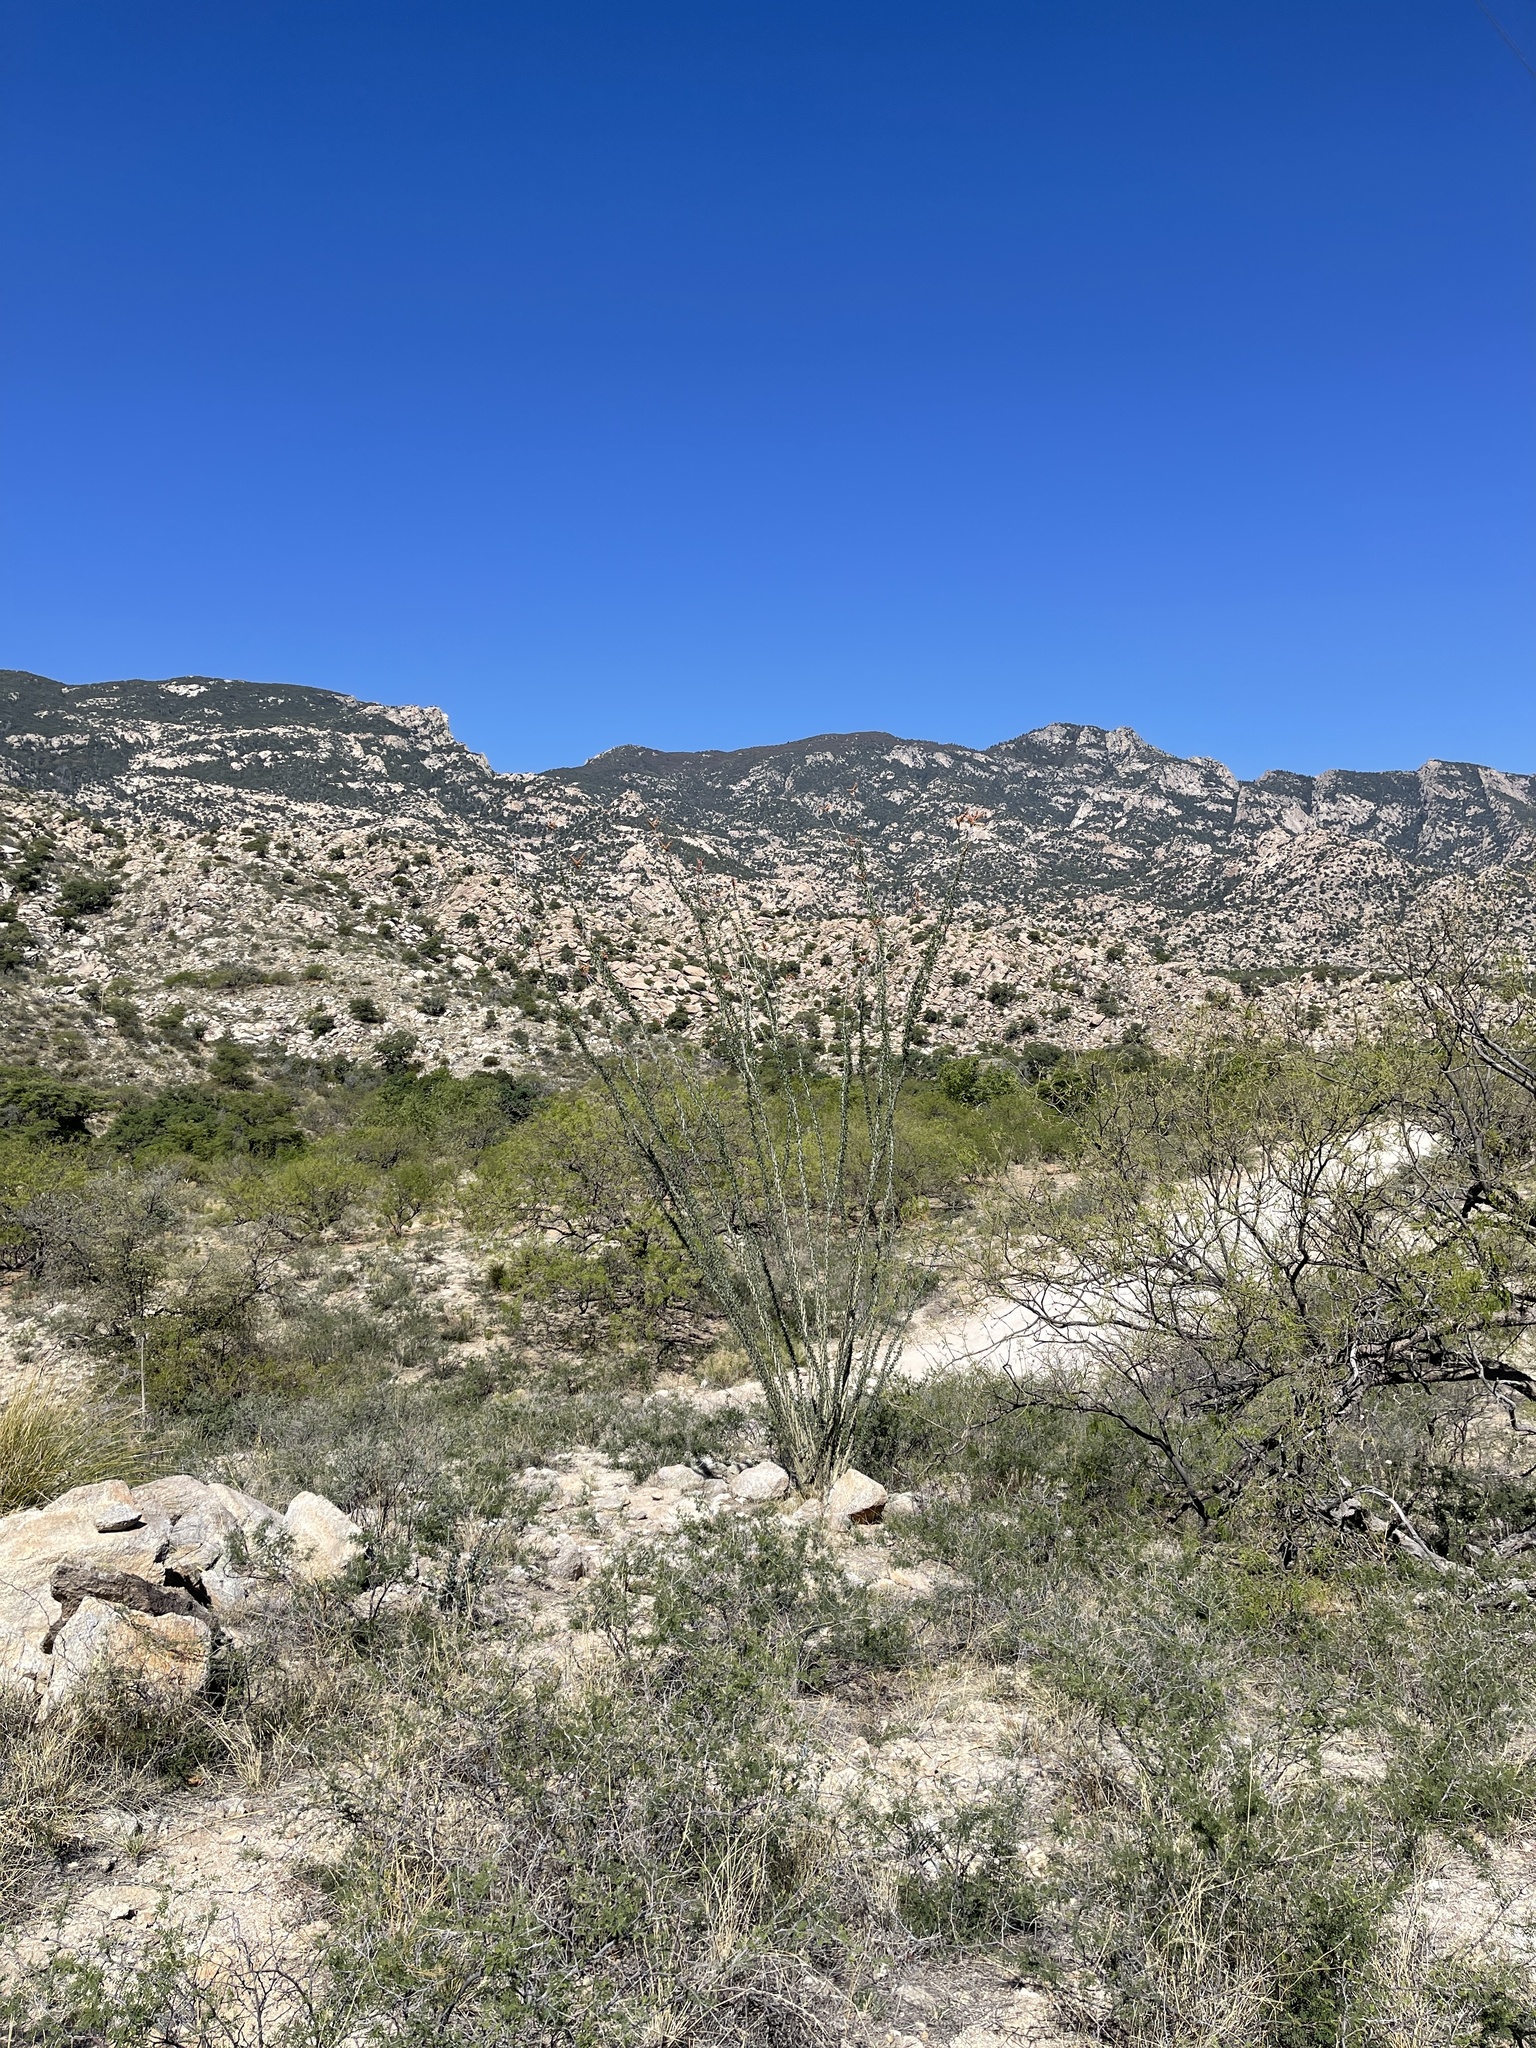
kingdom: Plantae
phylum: Tracheophyta
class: Magnoliopsida
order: Ericales
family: Fouquieriaceae
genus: Fouquieria
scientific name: Fouquieria splendens
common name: Vine-cactus
